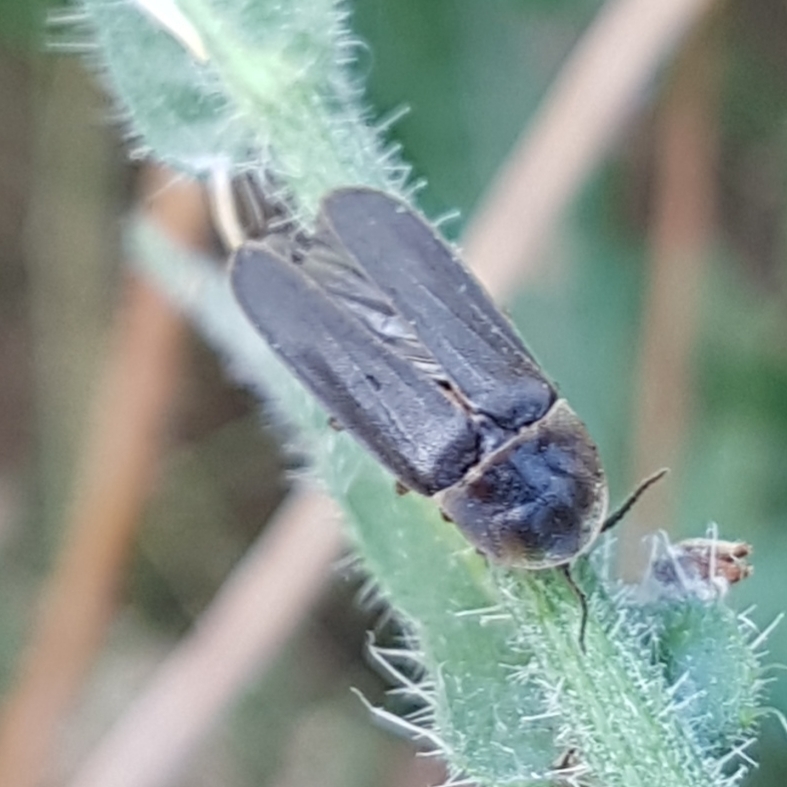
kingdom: Animalia
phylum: Arthropoda
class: Insecta
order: Coleoptera
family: Lampyridae
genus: Lampyris
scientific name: Lampyris noctiluca
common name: Glow-worm
